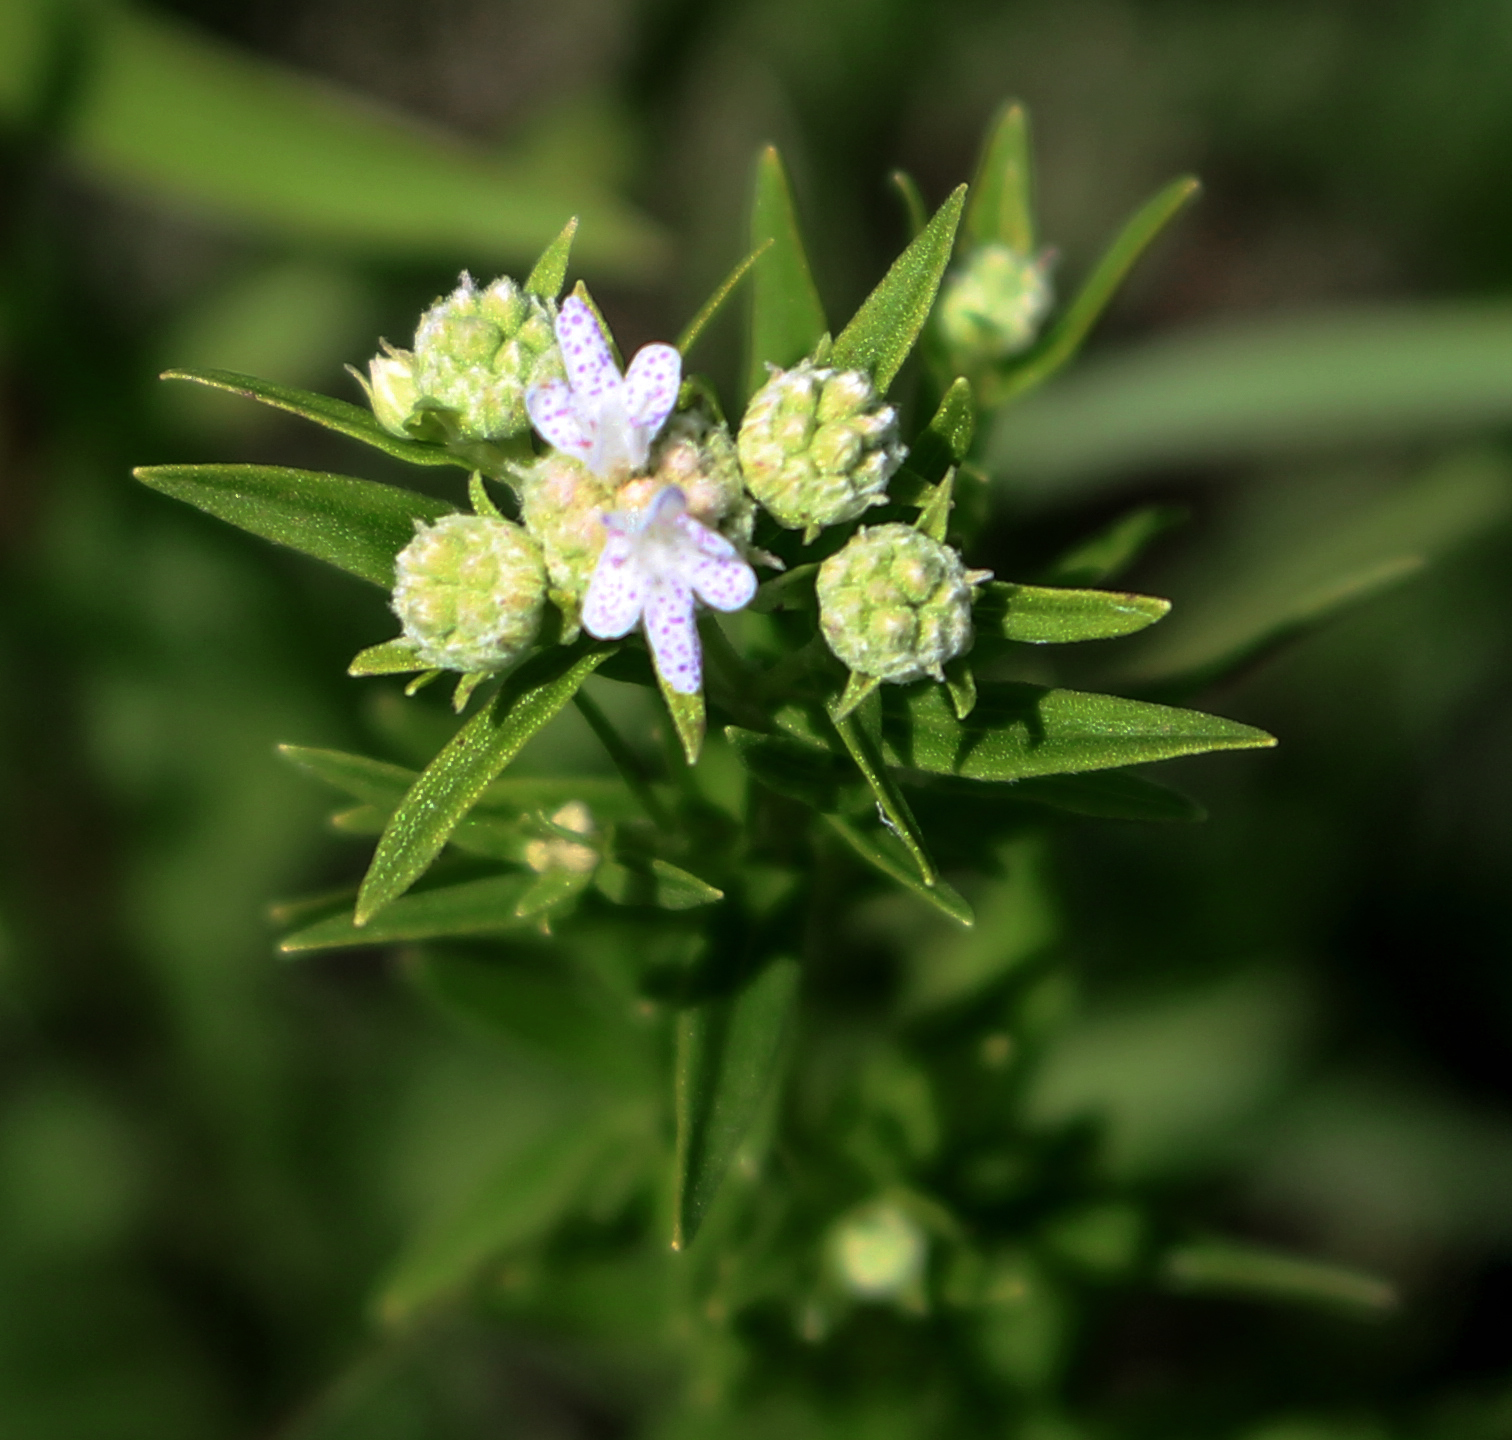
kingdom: Plantae
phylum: Tracheophyta
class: Magnoliopsida
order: Lamiales
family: Lamiaceae
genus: Pycnanthemum
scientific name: Pycnanthemum virginianum
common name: Virginia mountain-mint
